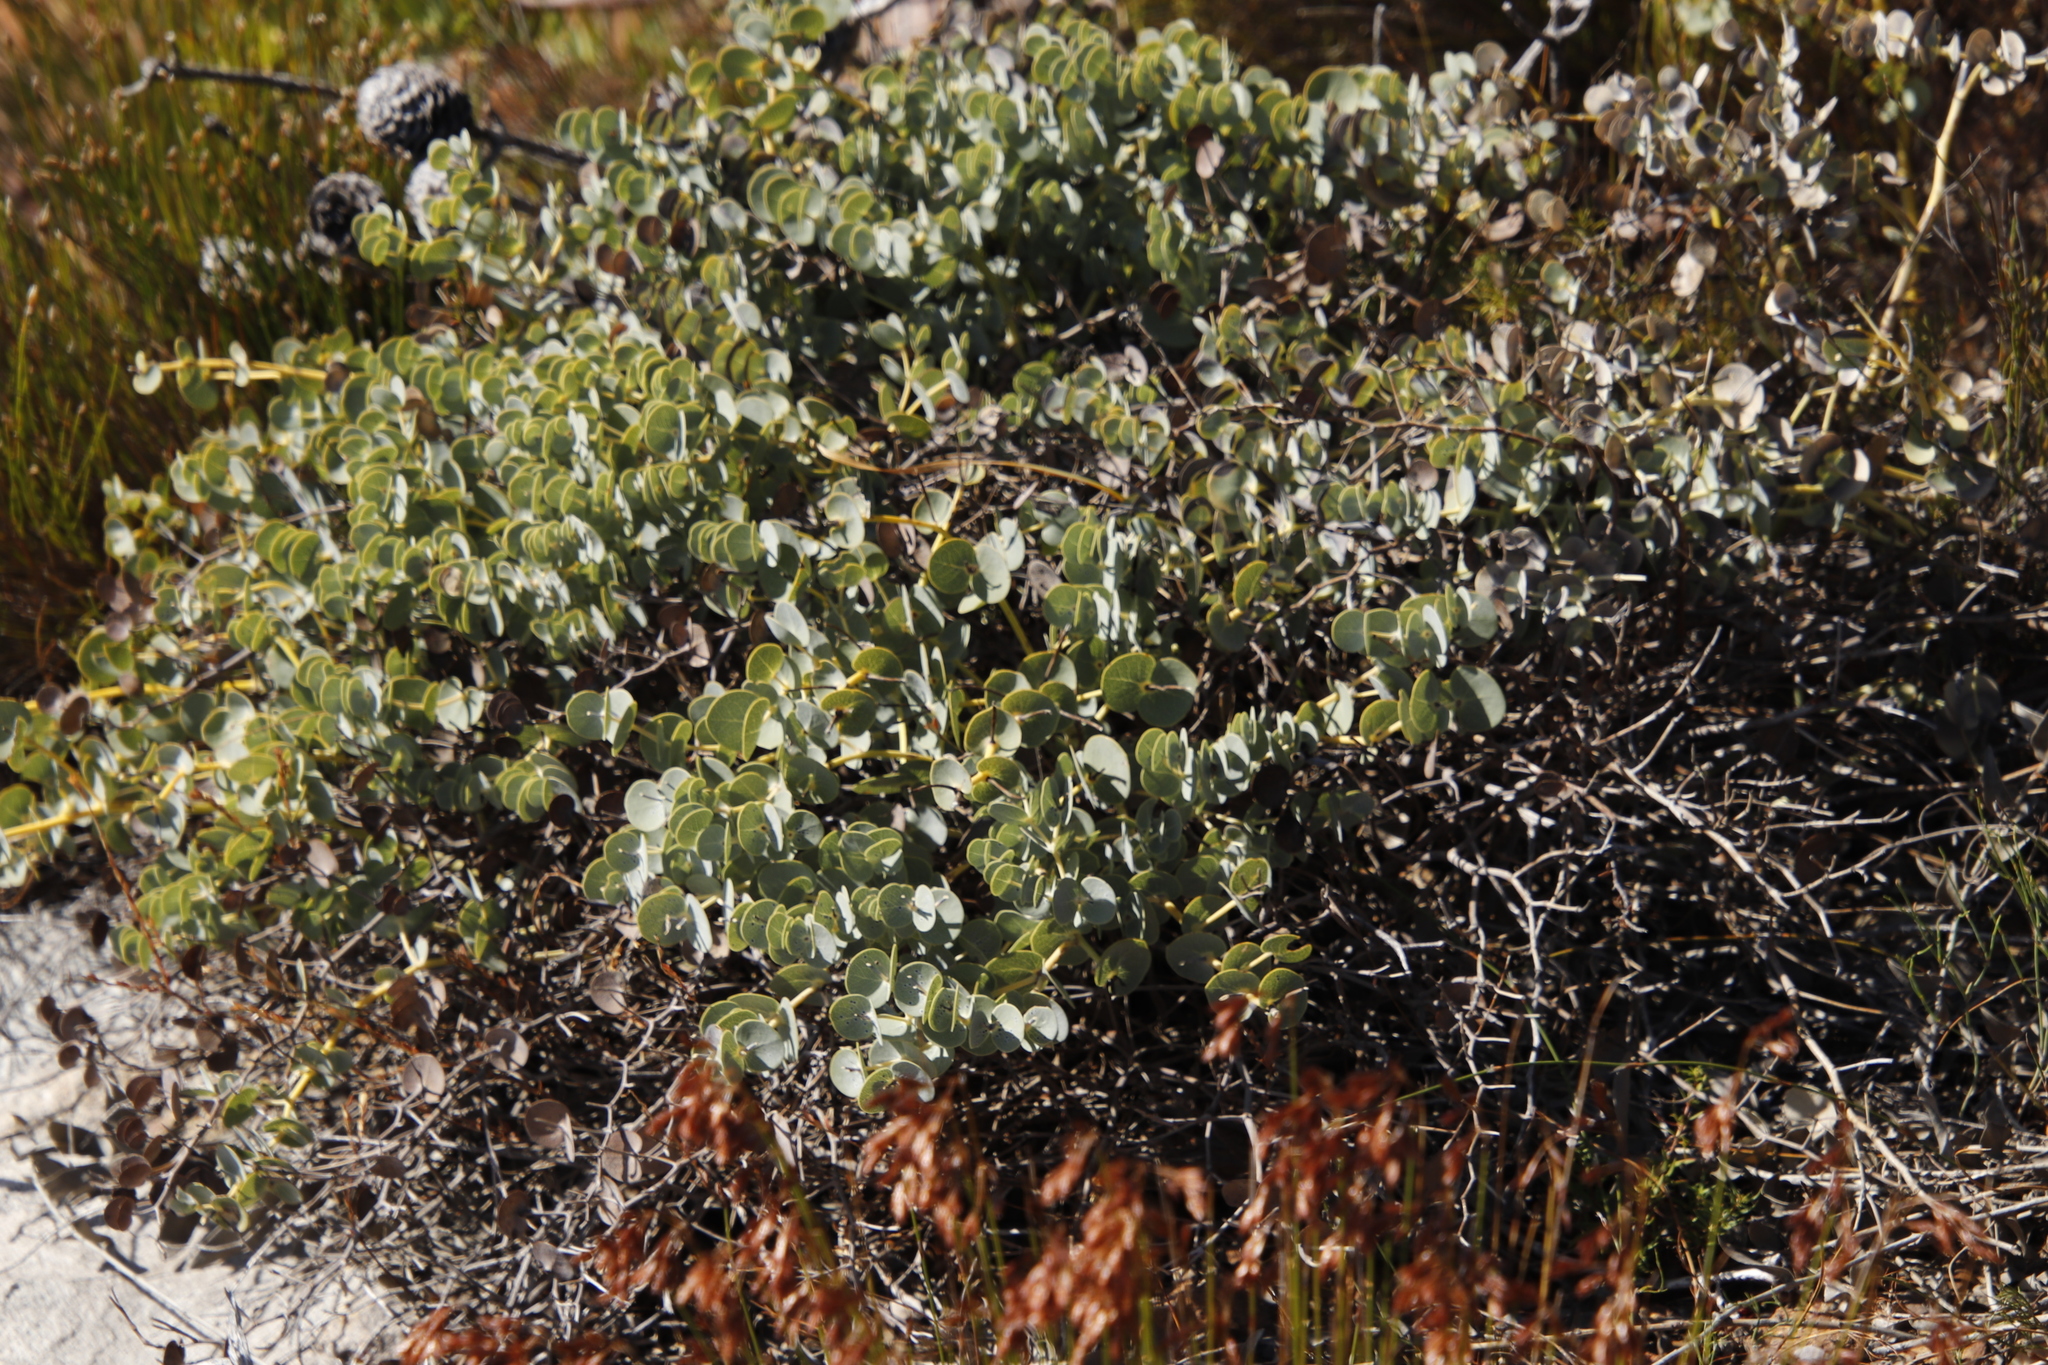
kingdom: Plantae
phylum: Tracheophyta
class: Magnoliopsida
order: Fabales
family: Fabaceae
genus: Rafnia
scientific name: Rafnia acuminata
